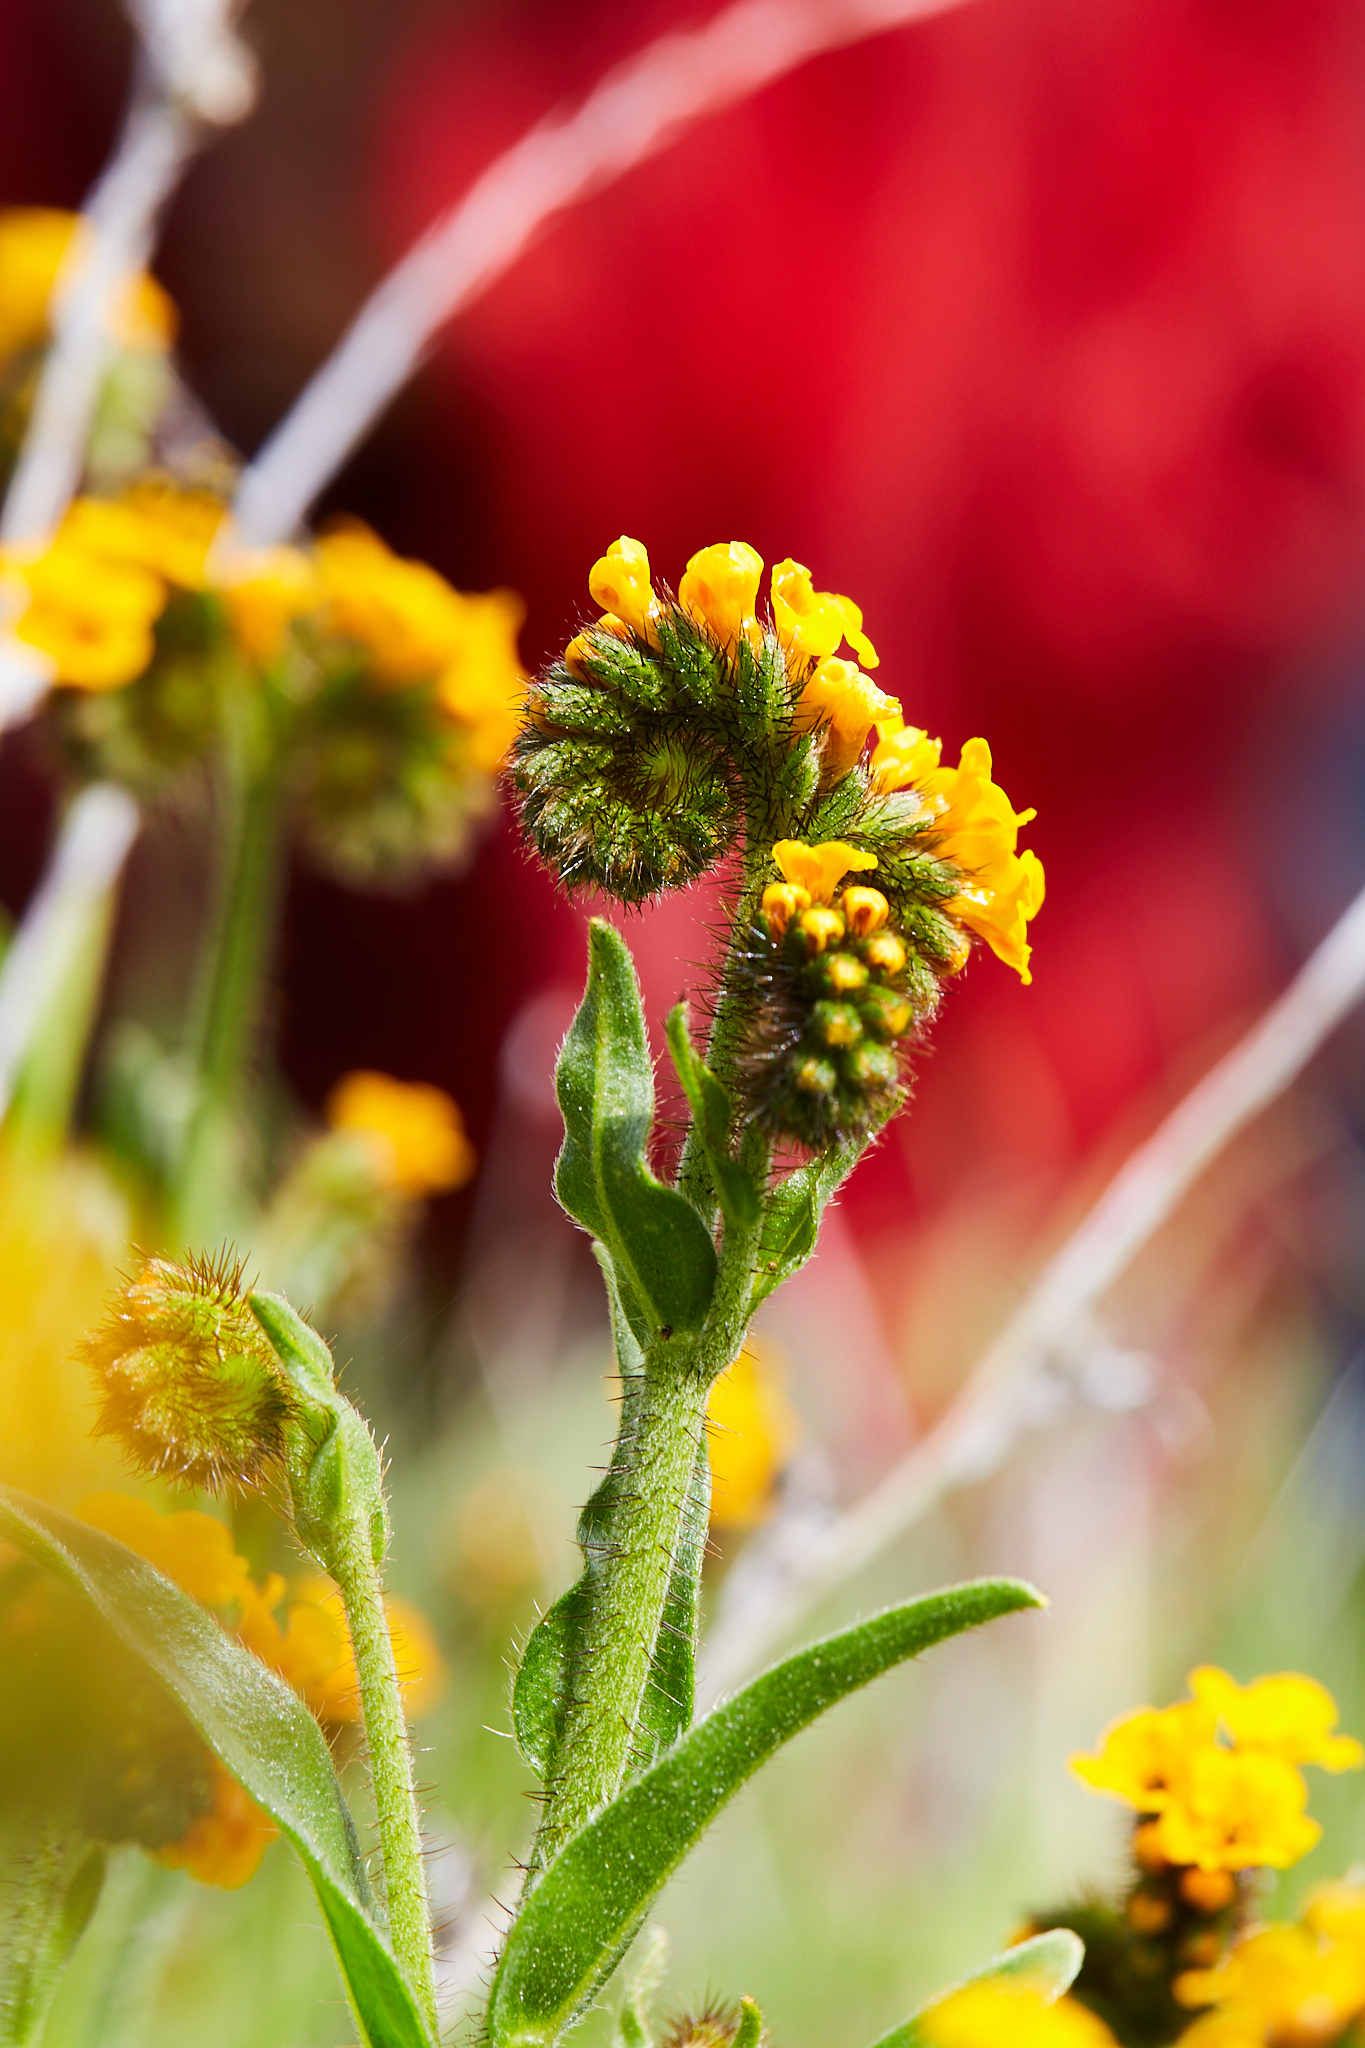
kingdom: Plantae
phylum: Tracheophyta
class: Magnoliopsida
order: Boraginales
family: Boraginaceae
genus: Amsinckia
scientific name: Amsinckia lunaris
